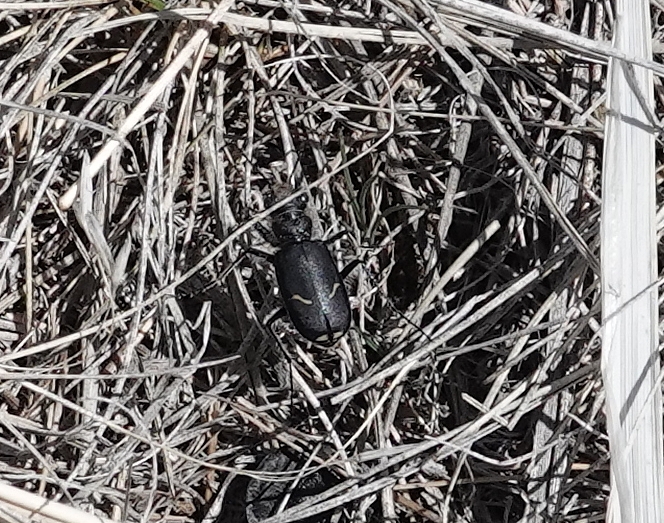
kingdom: Animalia
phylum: Arthropoda
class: Insecta
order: Coleoptera
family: Carabidae
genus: Cicindela
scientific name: Cicindela purpurea
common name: Cow path tiger beetle
